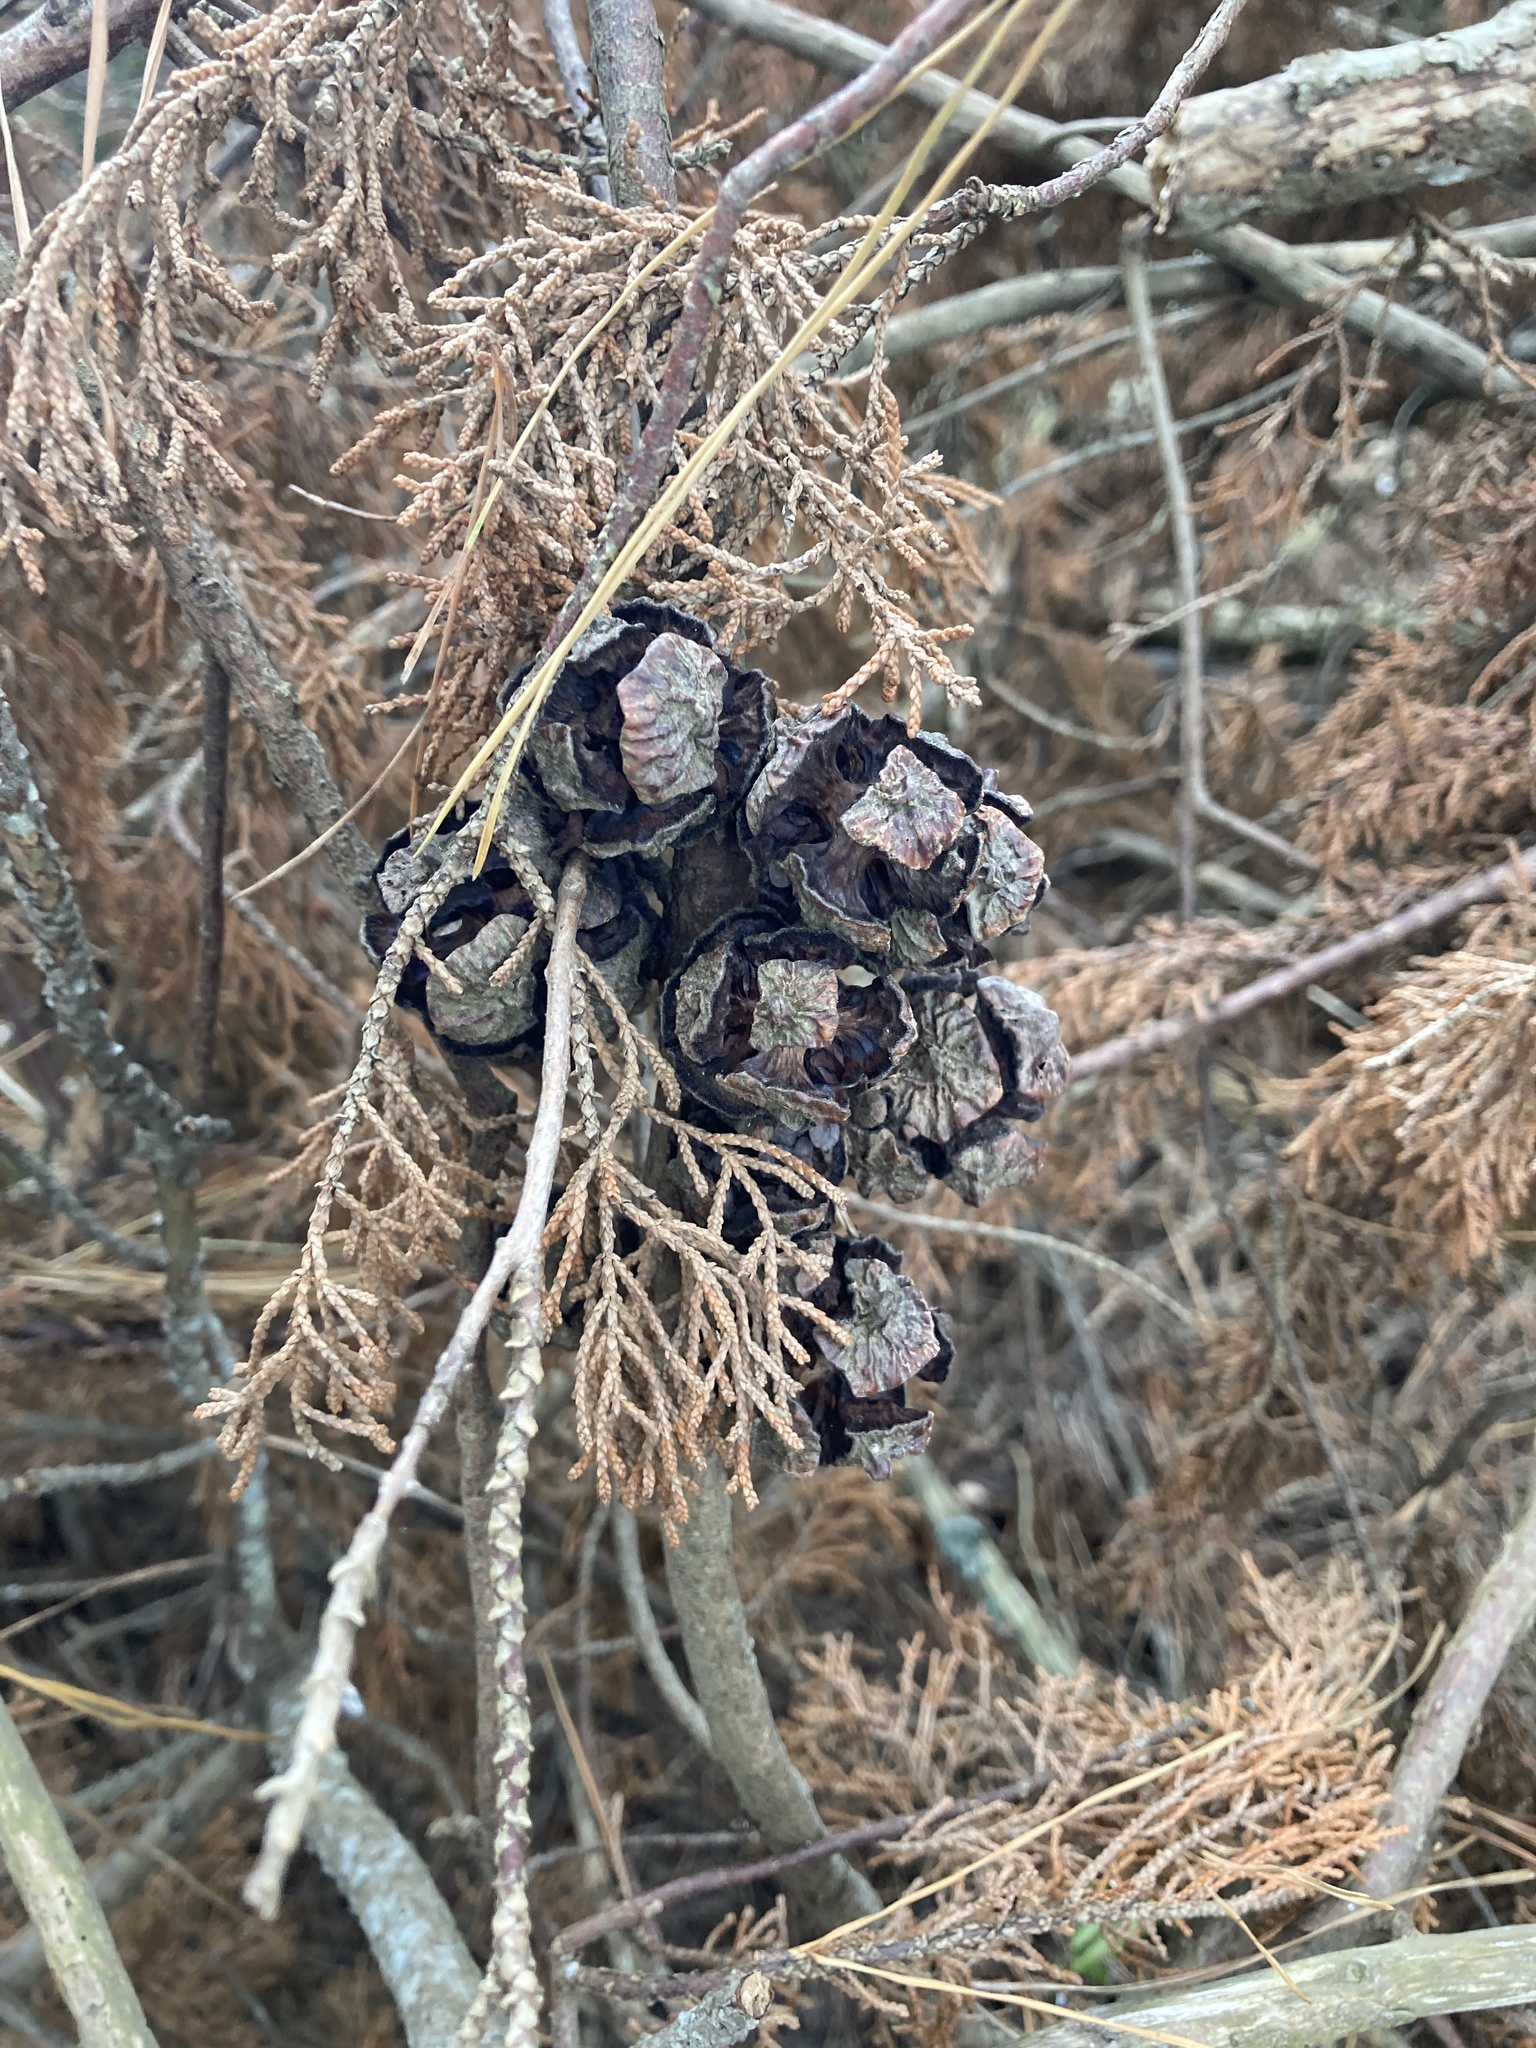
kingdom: Plantae
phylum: Tracheophyta
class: Pinopsida
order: Pinales
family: Cupressaceae
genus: Cupressus
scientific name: Cupressus macrocarpa
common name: Monterey cypress
